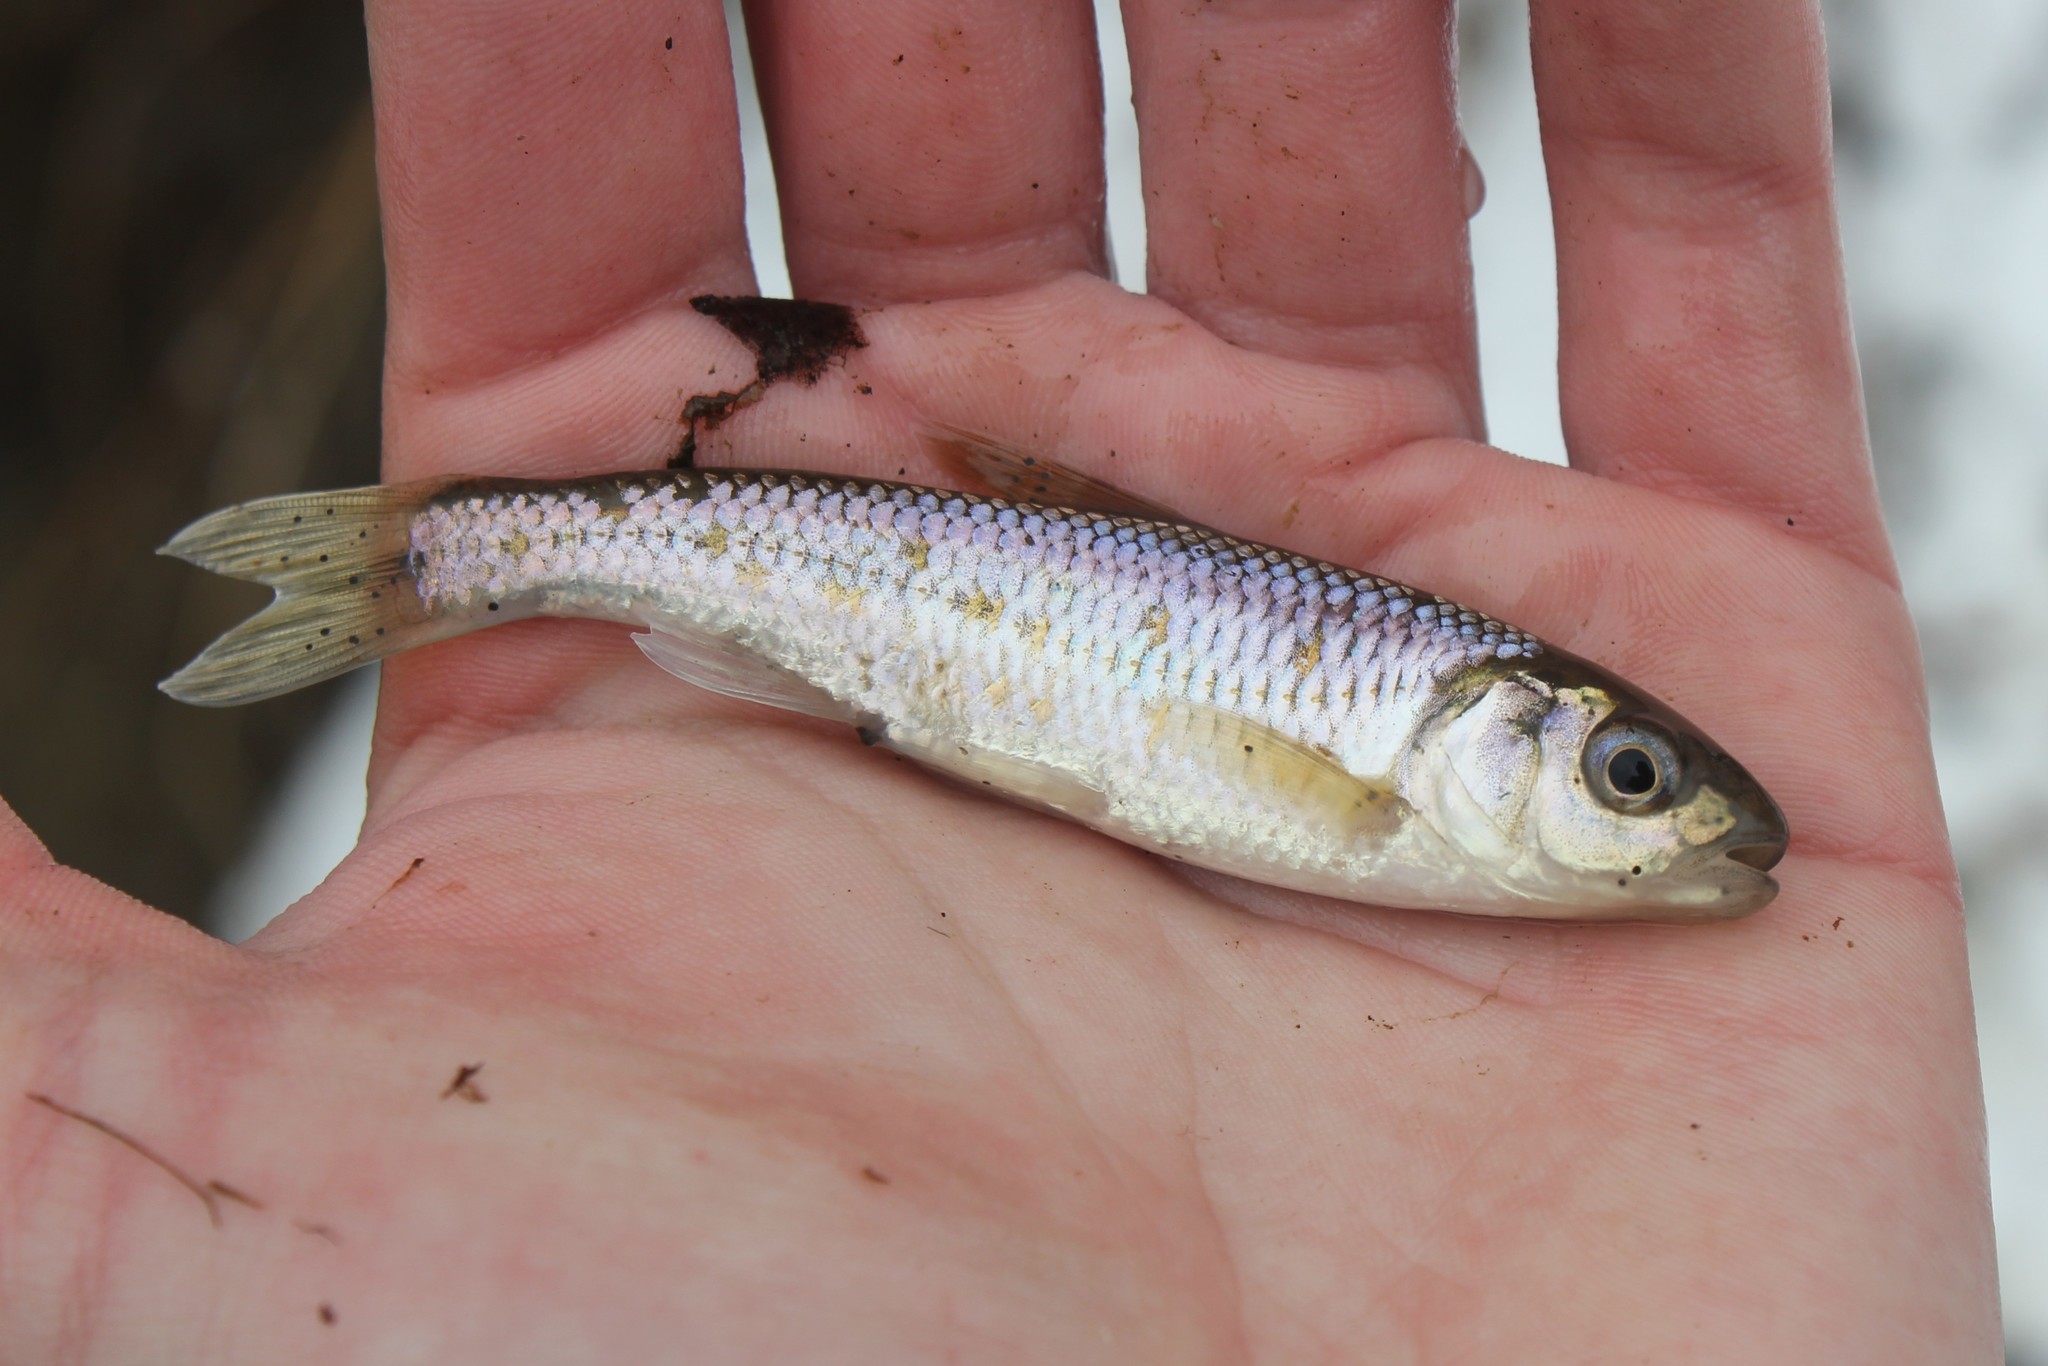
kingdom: Animalia
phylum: Chordata
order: Cypriniformes
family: Cyprinidae
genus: Luxilus
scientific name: Luxilus chrysocephalus
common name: Striped shiner
